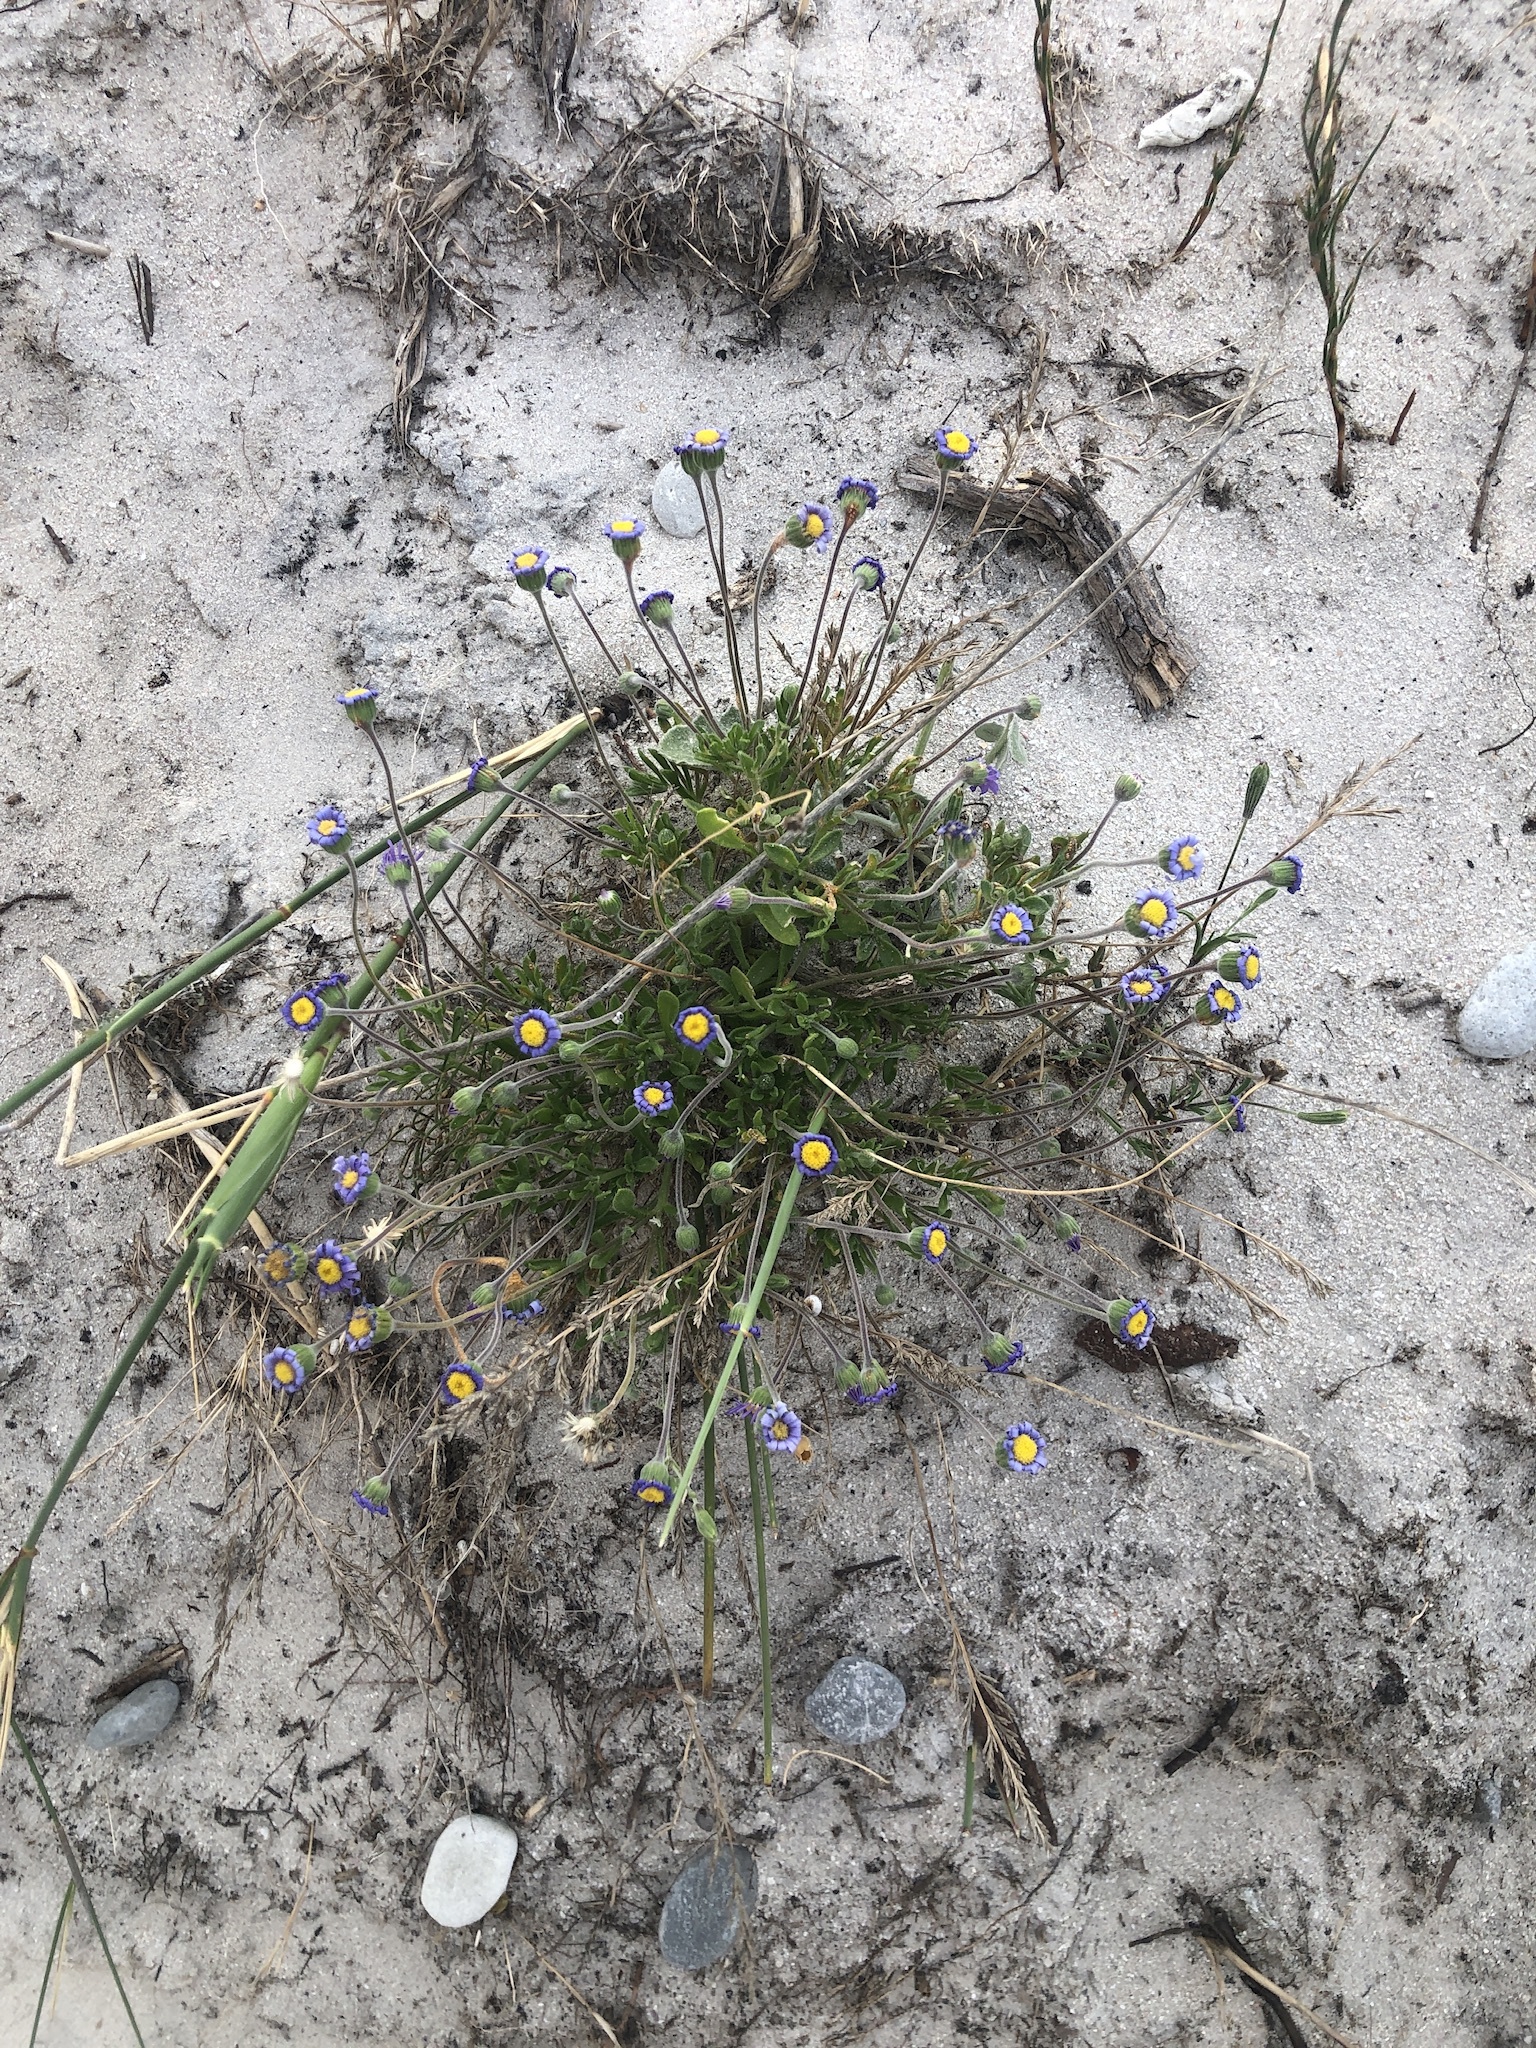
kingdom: Plantae
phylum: Tracheophyta
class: Magnoliopsida
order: Asterales
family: Asteraceae
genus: Felicia
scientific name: Felicia amoena
